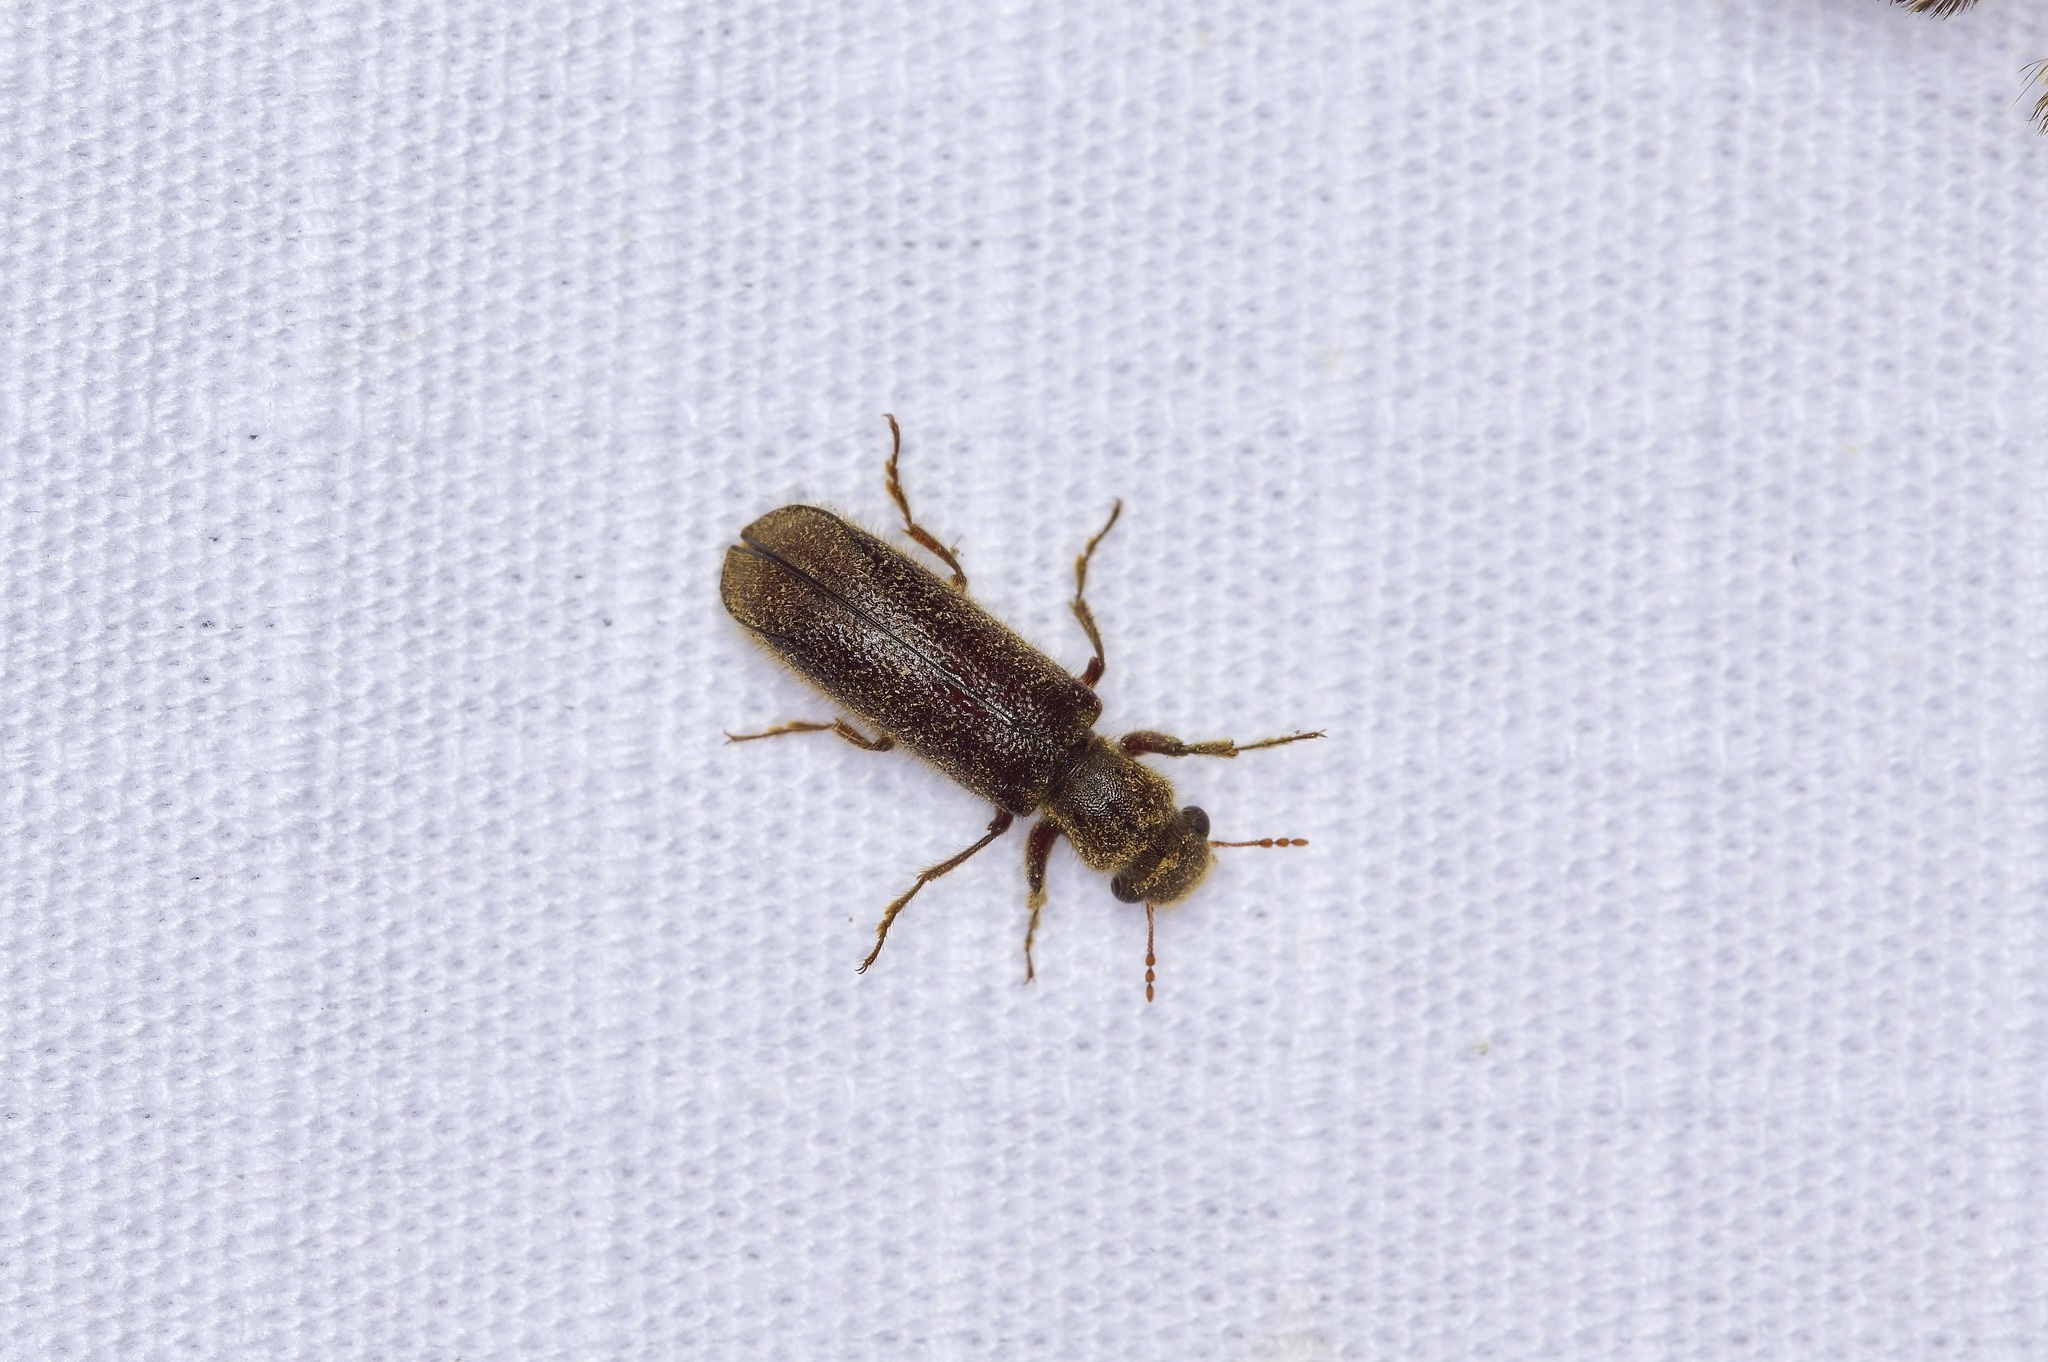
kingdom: Animalia
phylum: Arthropoda
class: Insecta
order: Coleoptera
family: Bostrichidae
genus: Melalgus
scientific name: Melalgus plicatus
